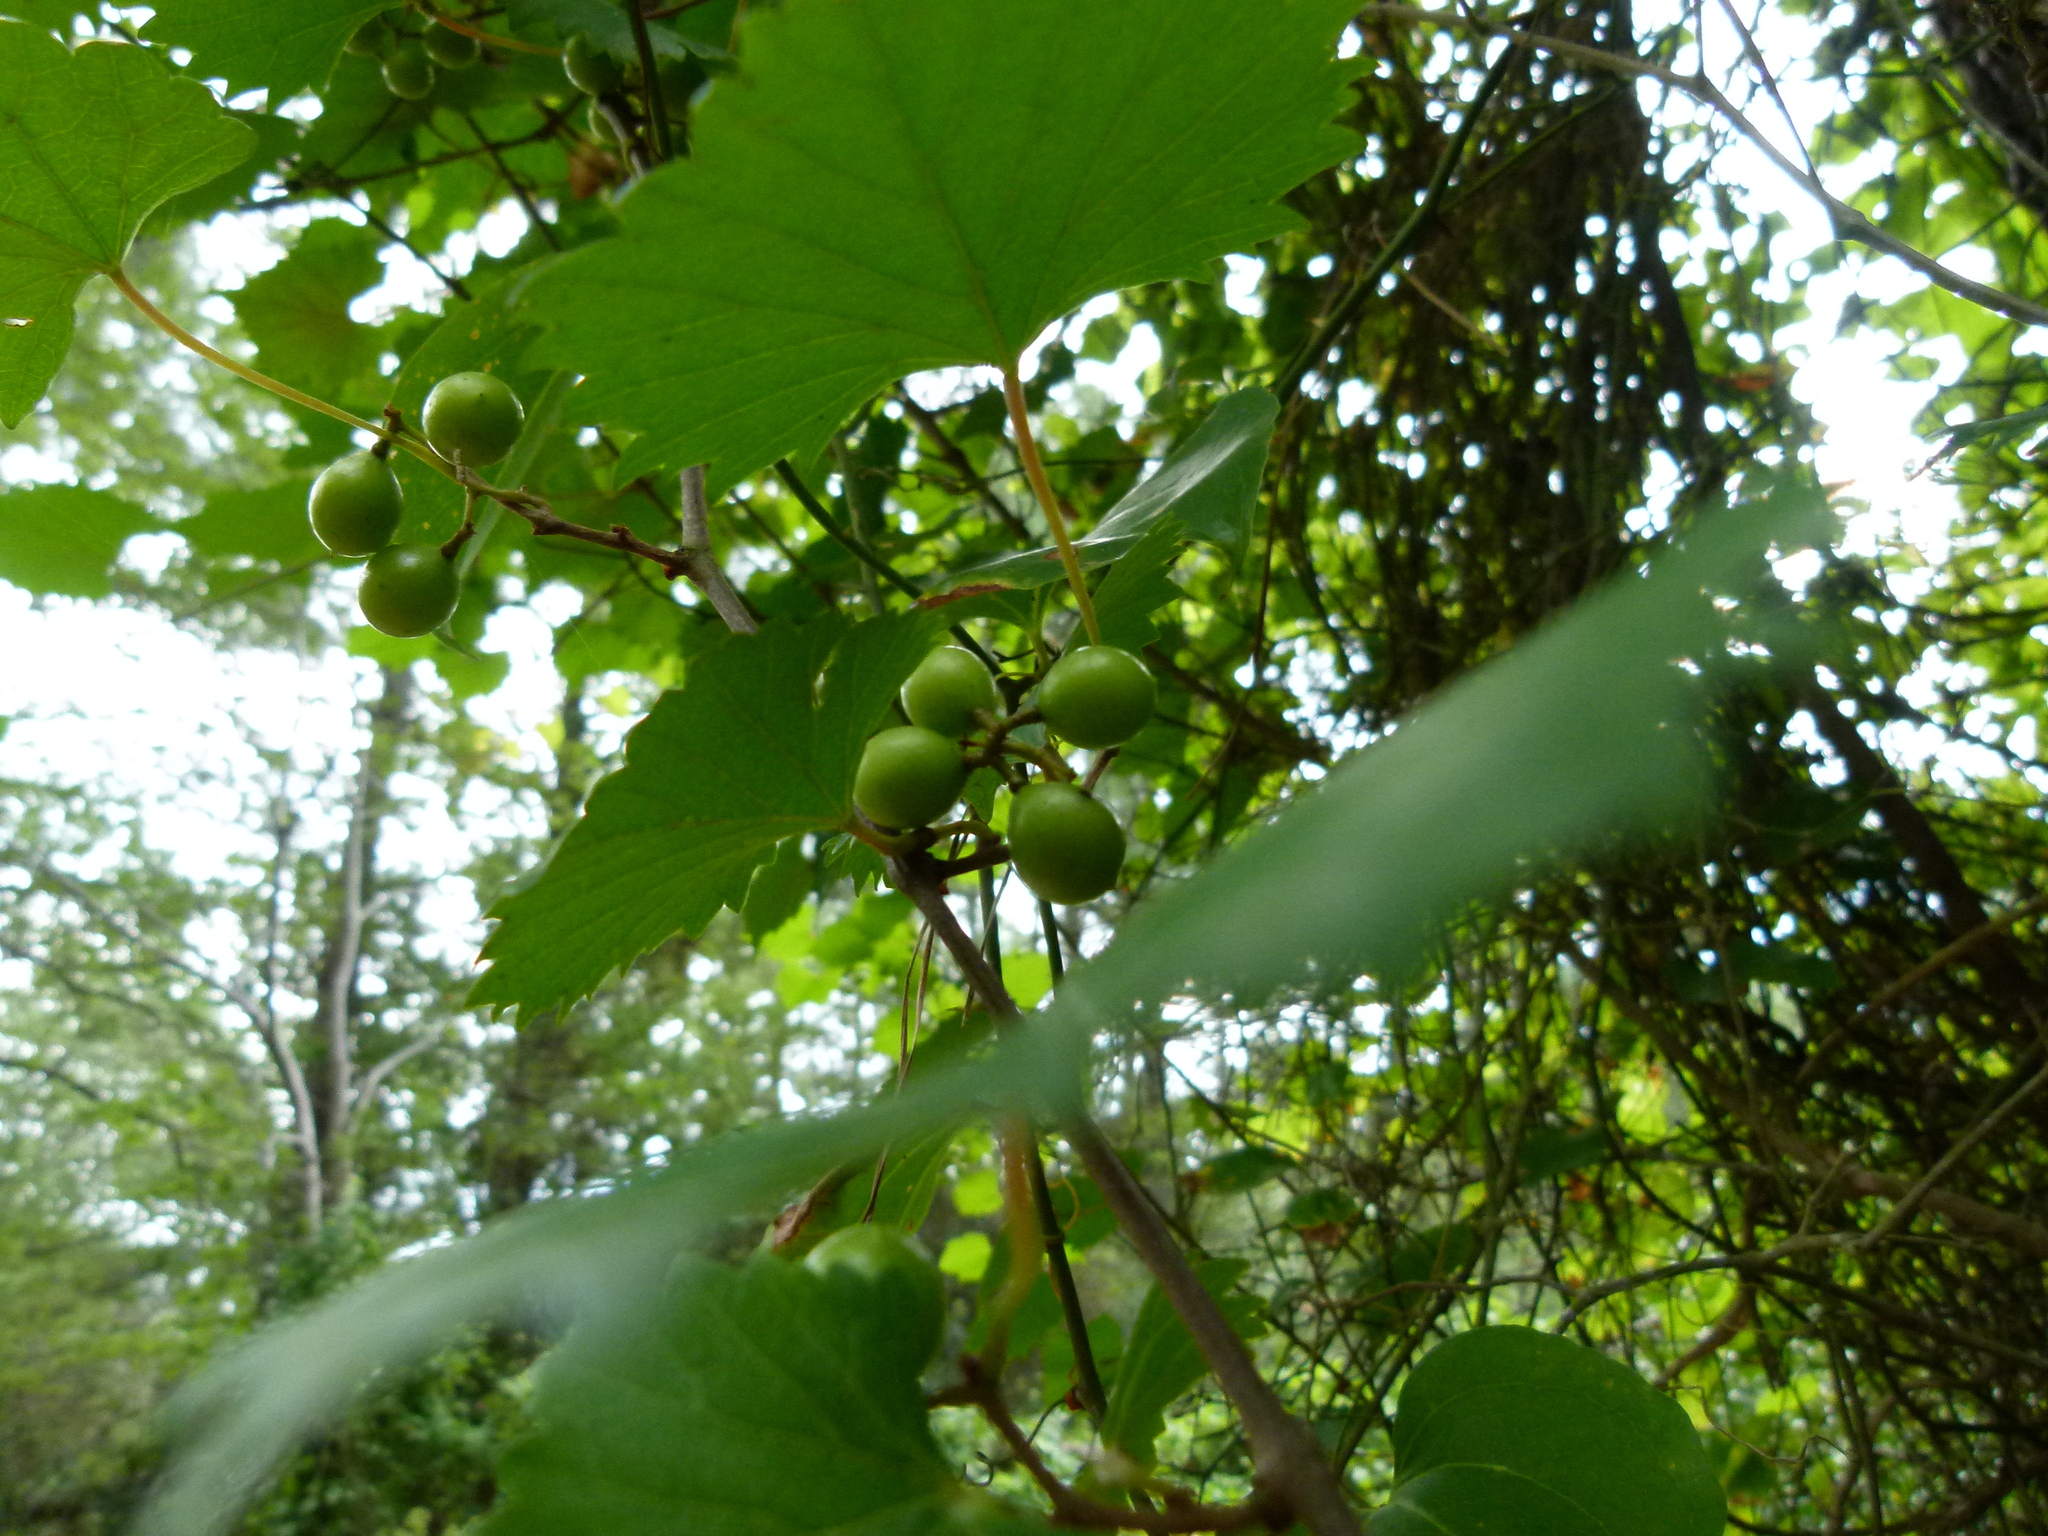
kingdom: Plantae
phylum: Tracheophyta
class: Magnoliopsida
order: Vitales
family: Vitaceae
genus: Vitis
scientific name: Vitis rotundifolia
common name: Muscadine grape
